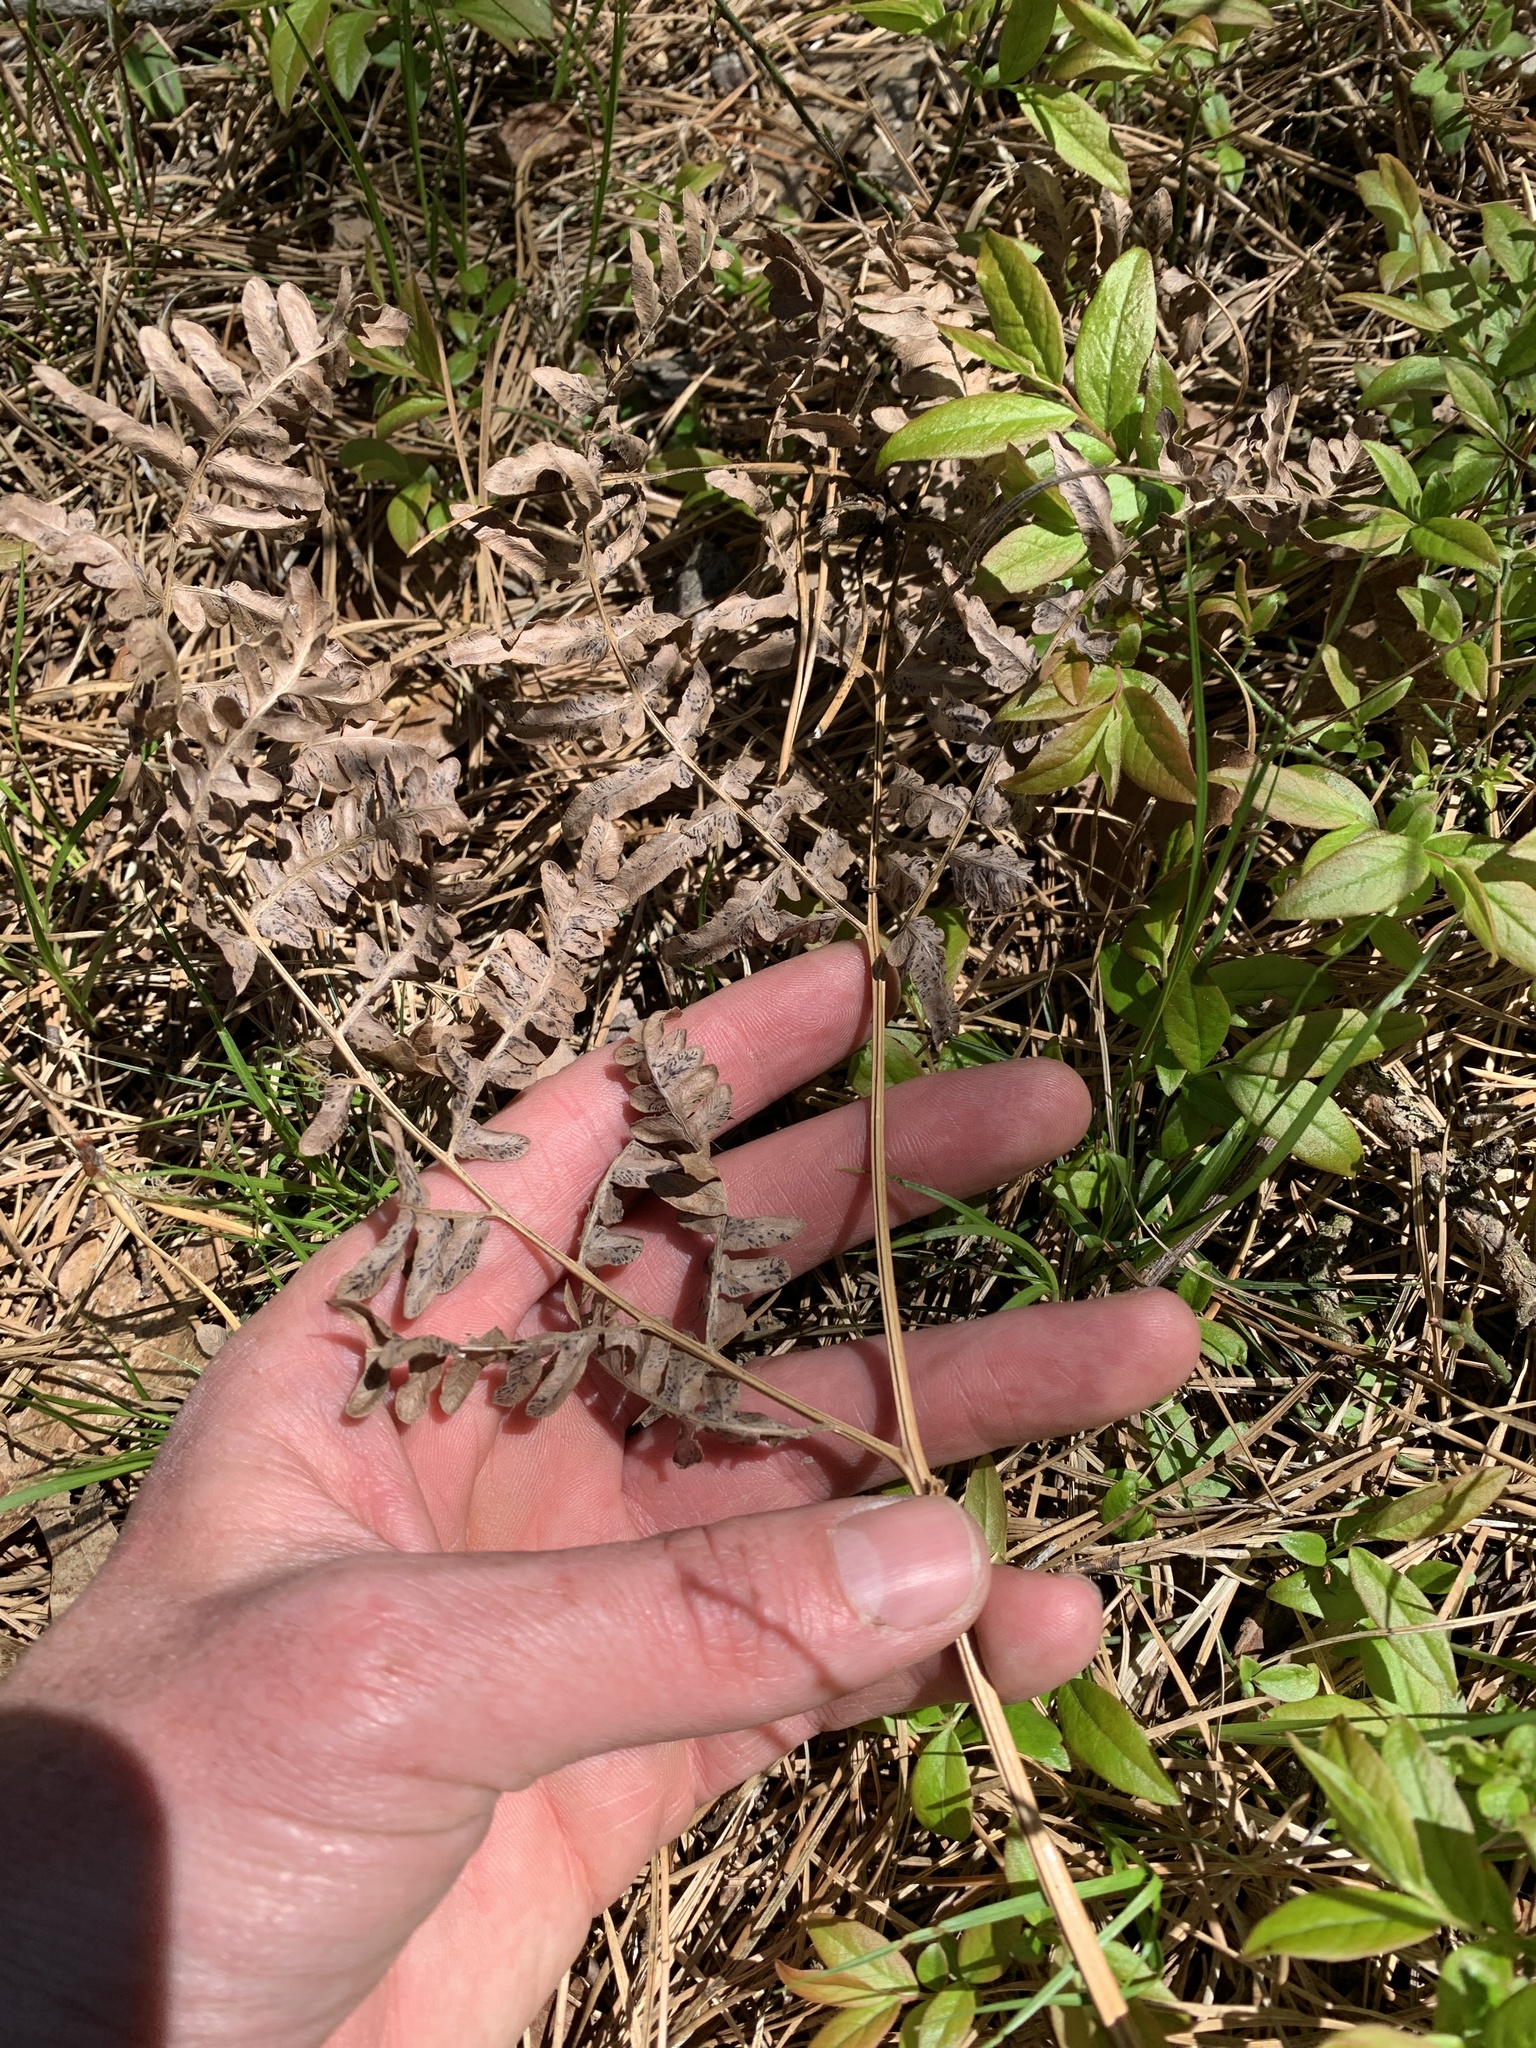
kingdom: Plantae
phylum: Tracheophyta
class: Polypodiopsida
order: Polypodiales
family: Dennstaedtiaceae
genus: Pteridium
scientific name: Pteridium aquilinum
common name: Bracken
